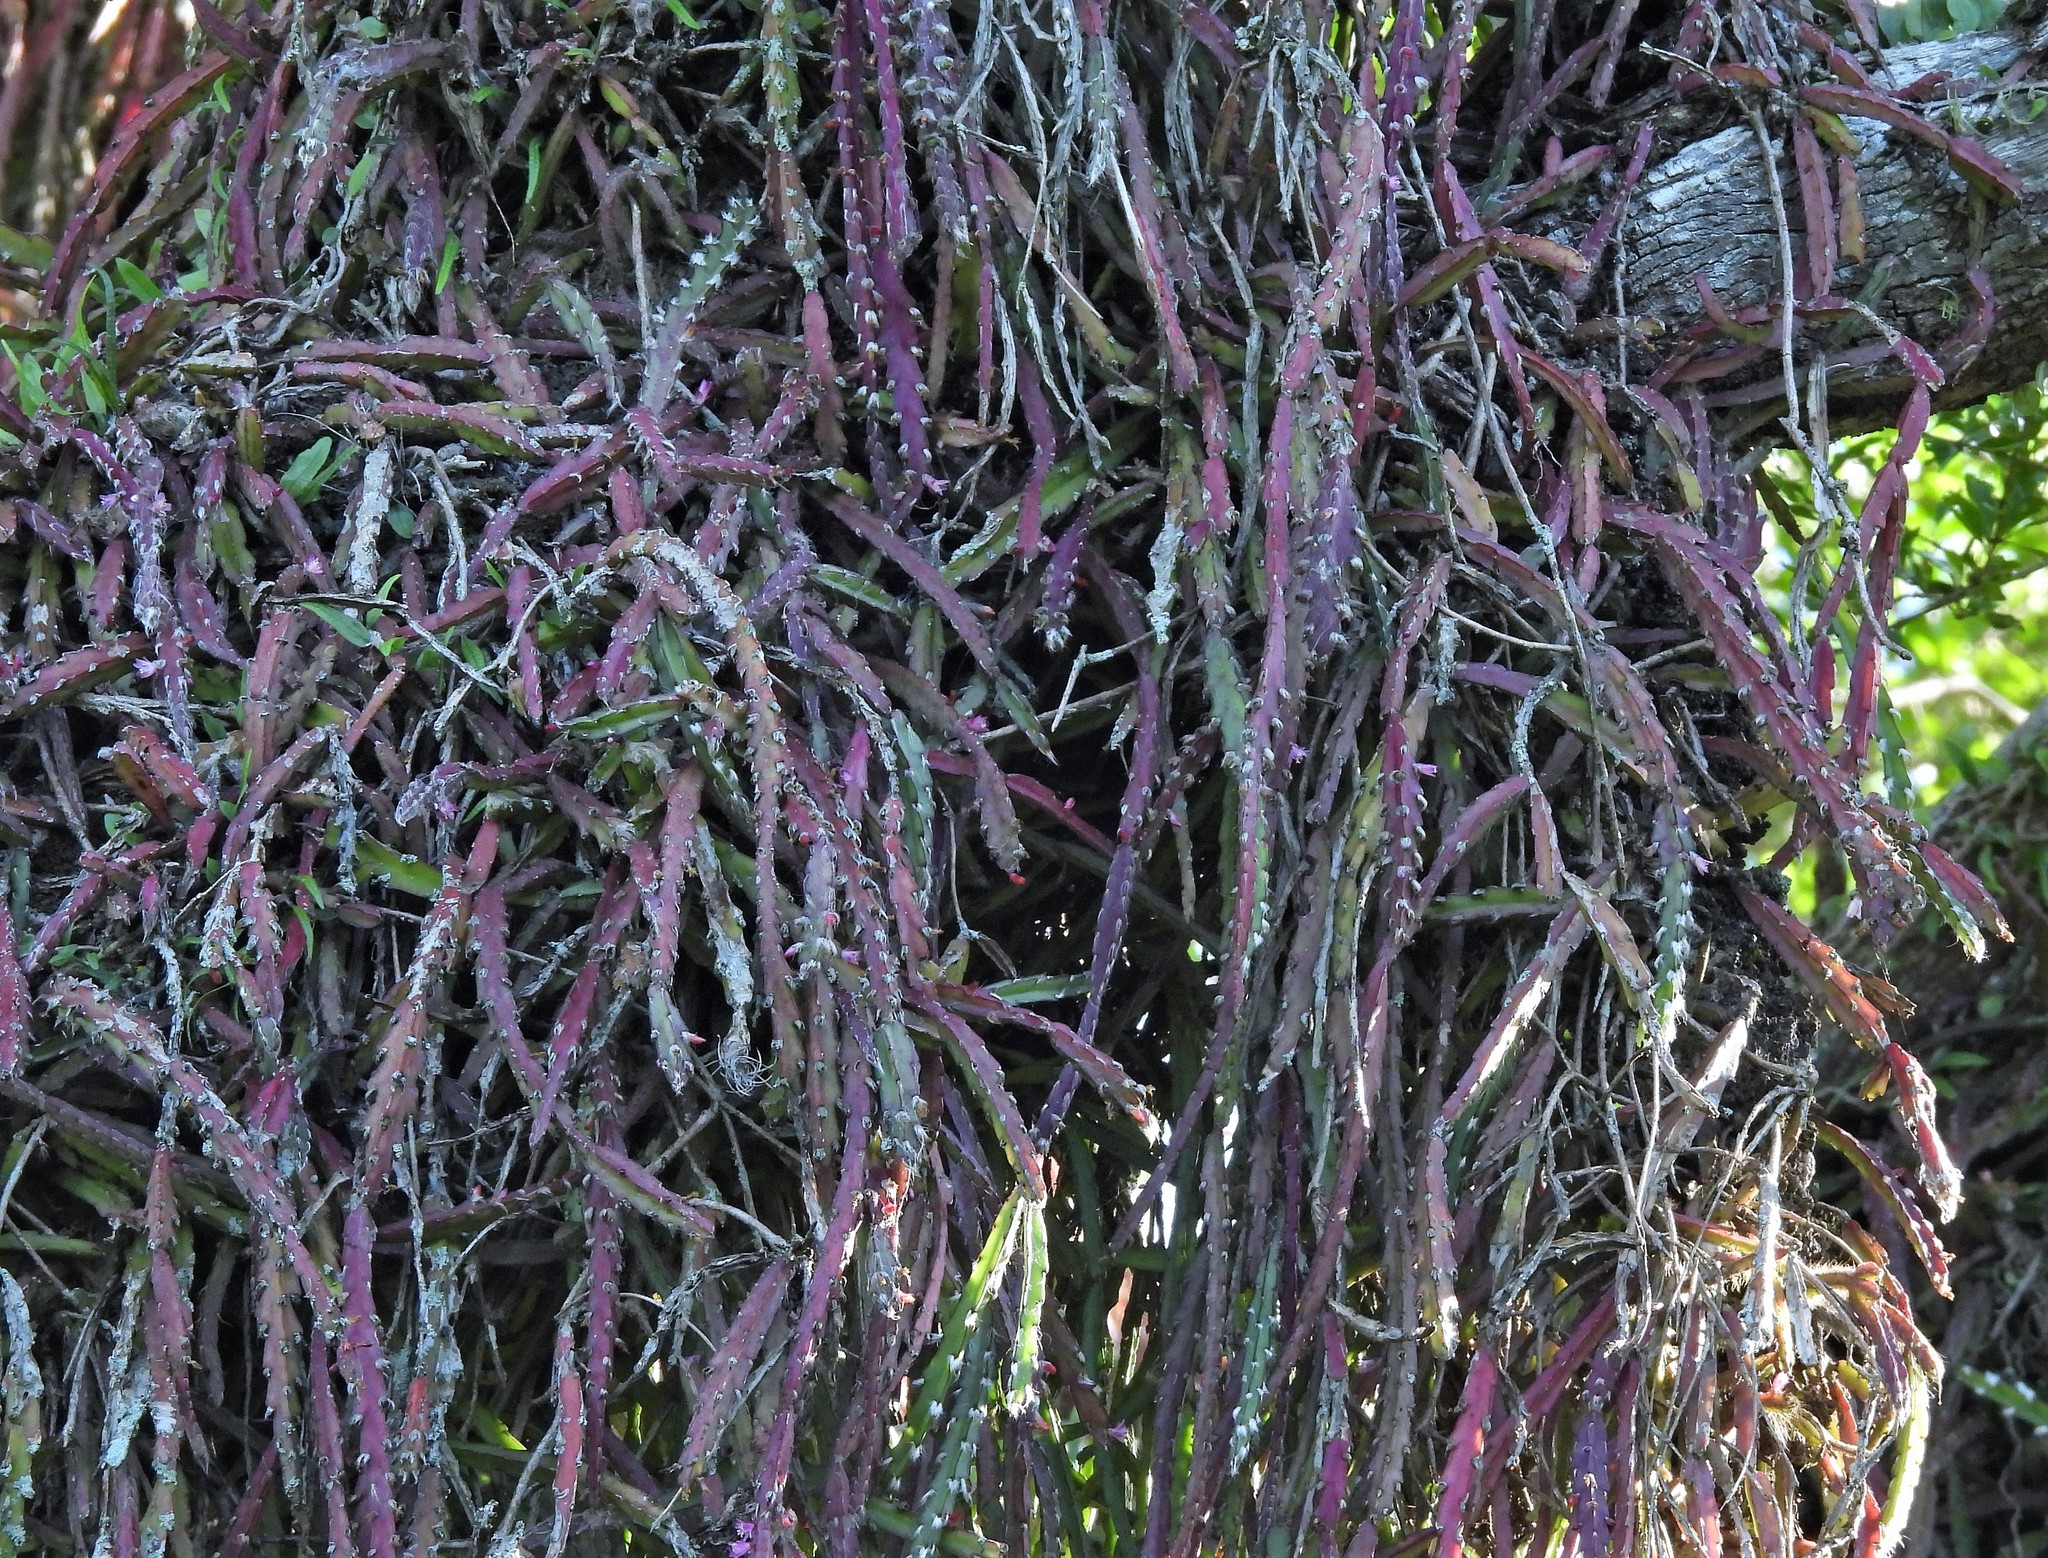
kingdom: Plantae
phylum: Tracheophyta
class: Magnoliopsida
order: Caryophyllales
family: Cactaceae
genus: Lepismium
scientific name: Lepismium cruciforme
